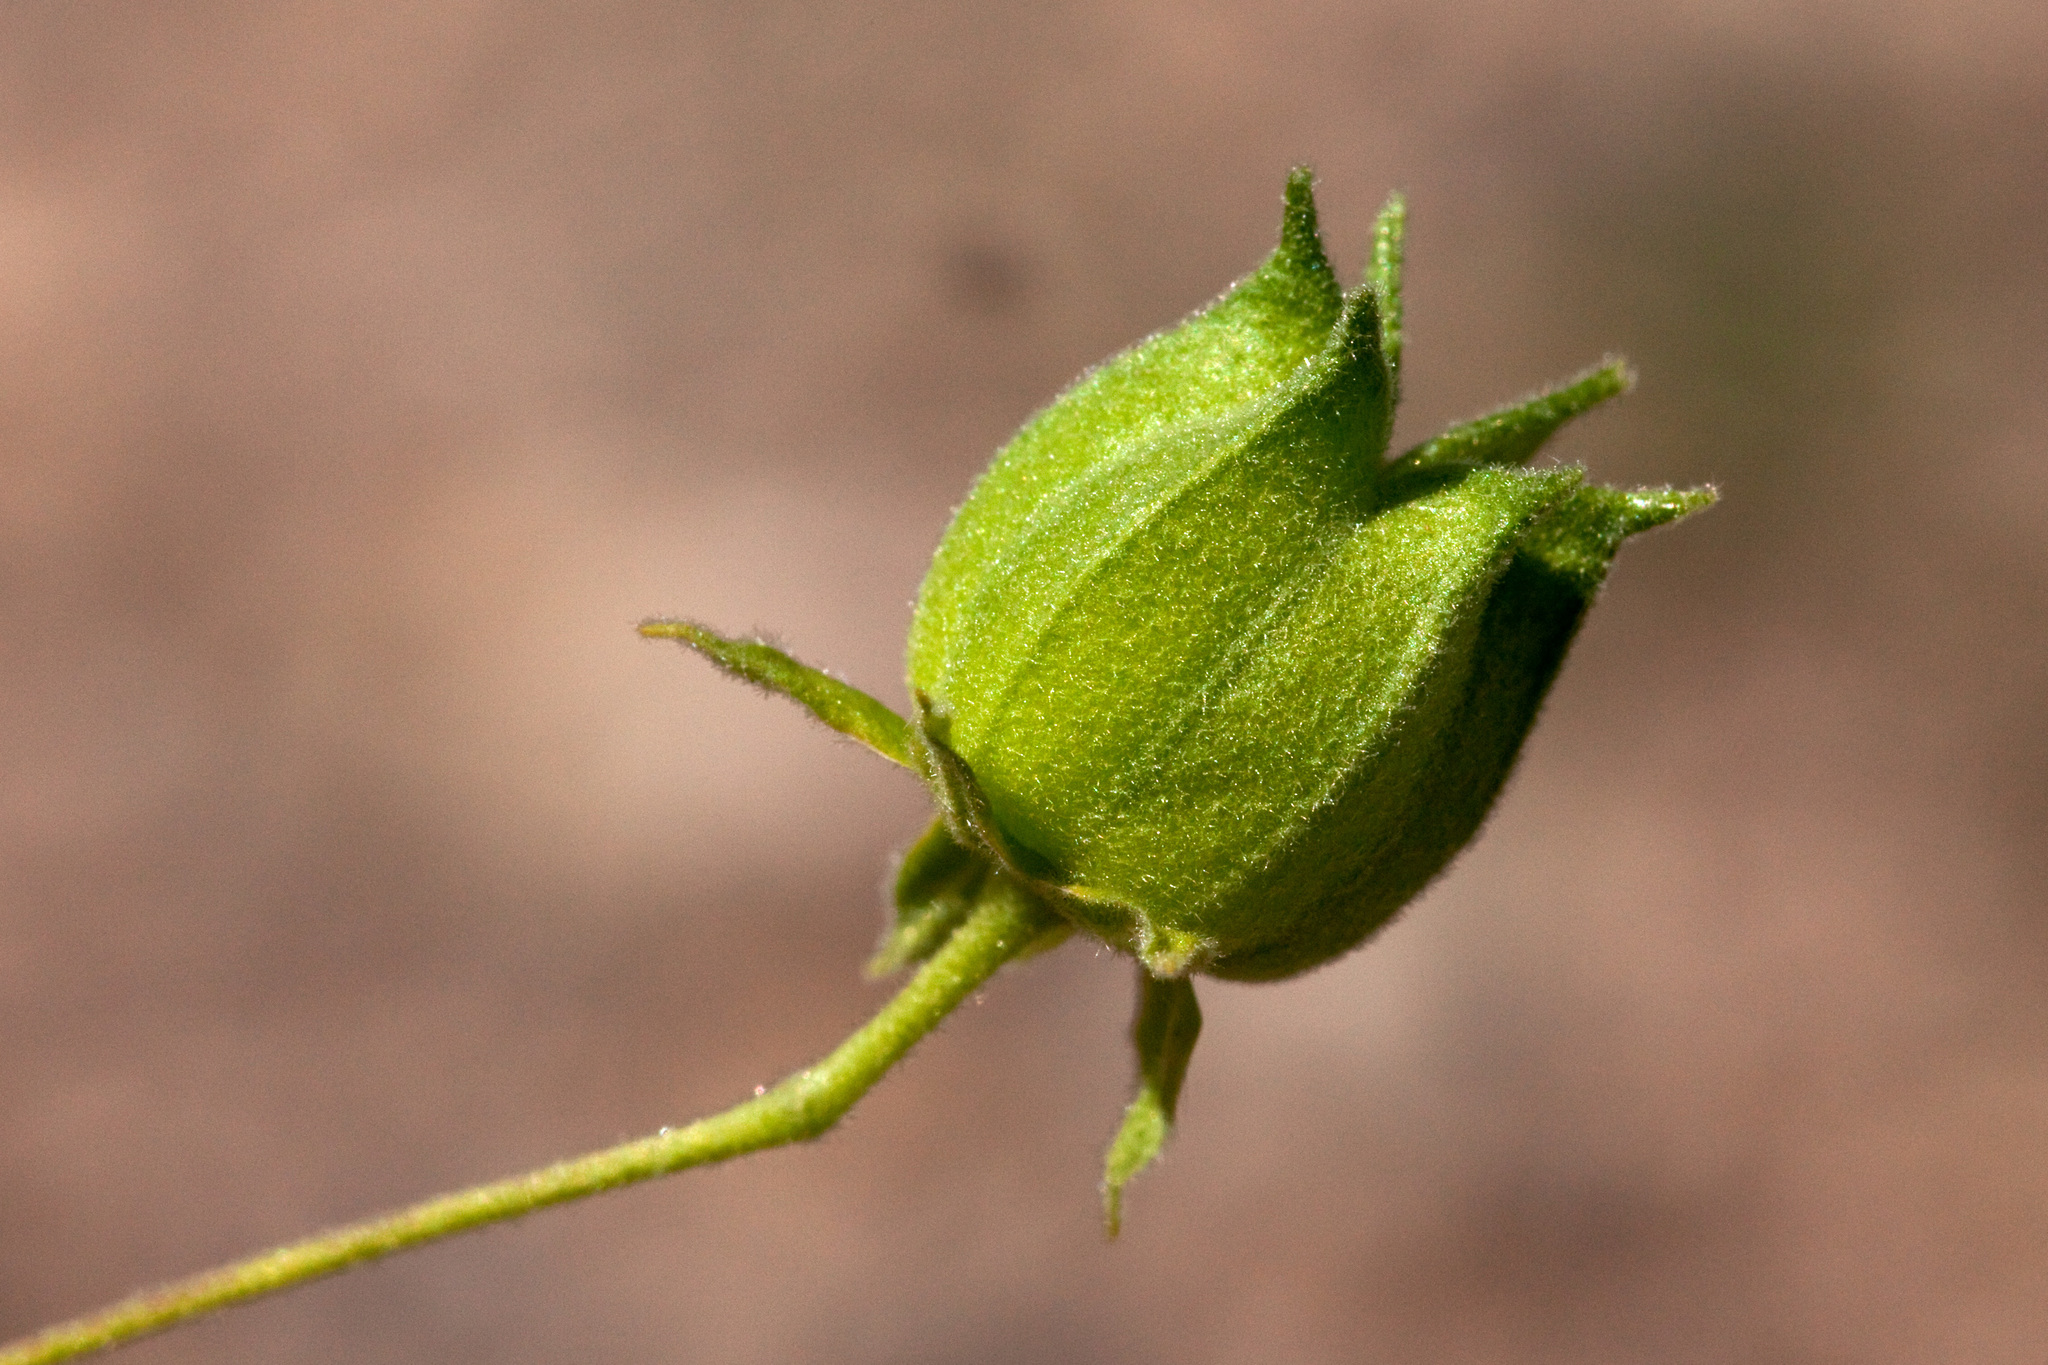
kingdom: Plantae
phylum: Tracheophyta
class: Magnoliopsida
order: Malvales
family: Malvaceae
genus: Abutilon
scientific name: Abutilon parvulum
